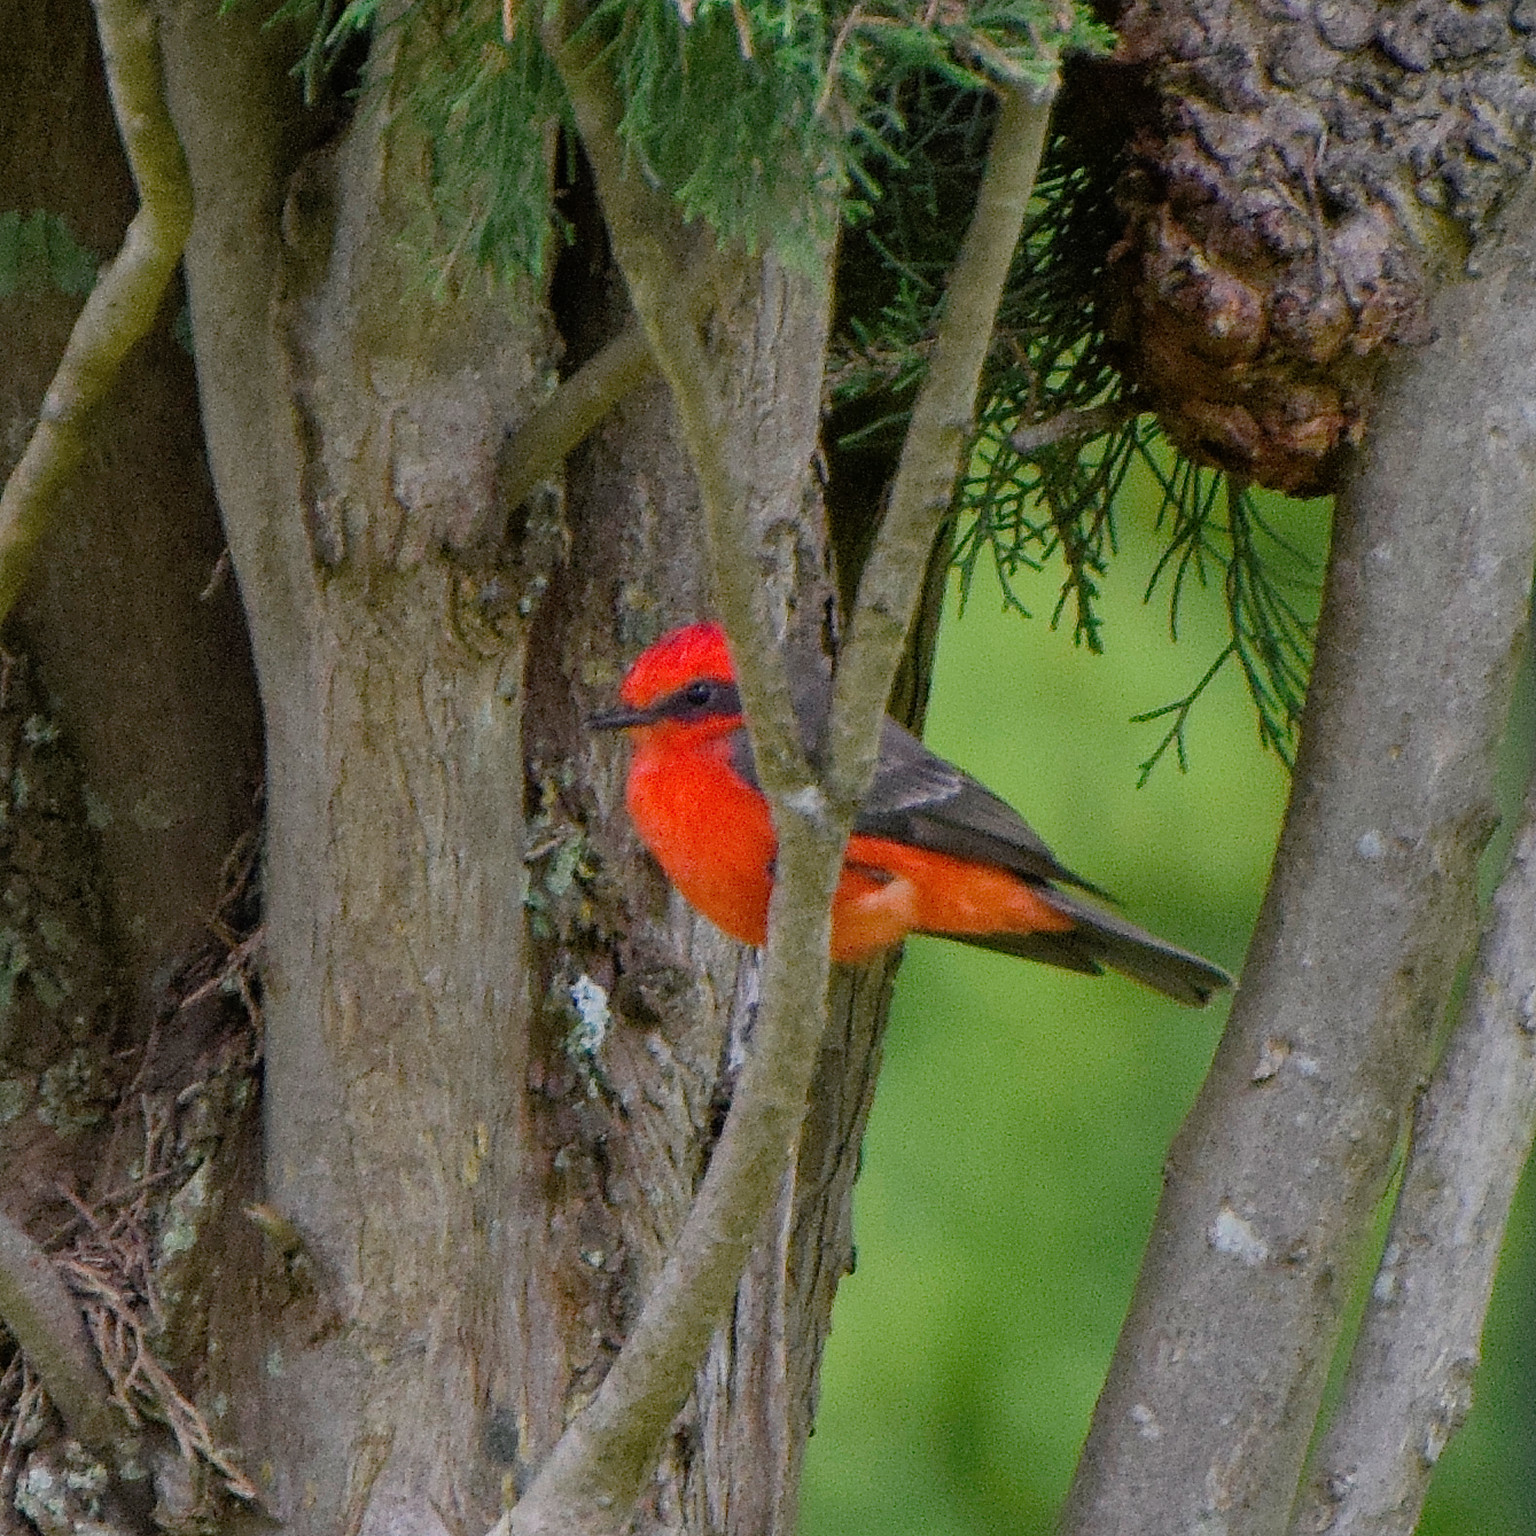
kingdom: Animalia
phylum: Chordata
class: Aves
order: Passeriformes
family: Tyrannidae
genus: Pyrocephalus
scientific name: Pyrocephalus rubinus
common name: Vermilion flycatcher
